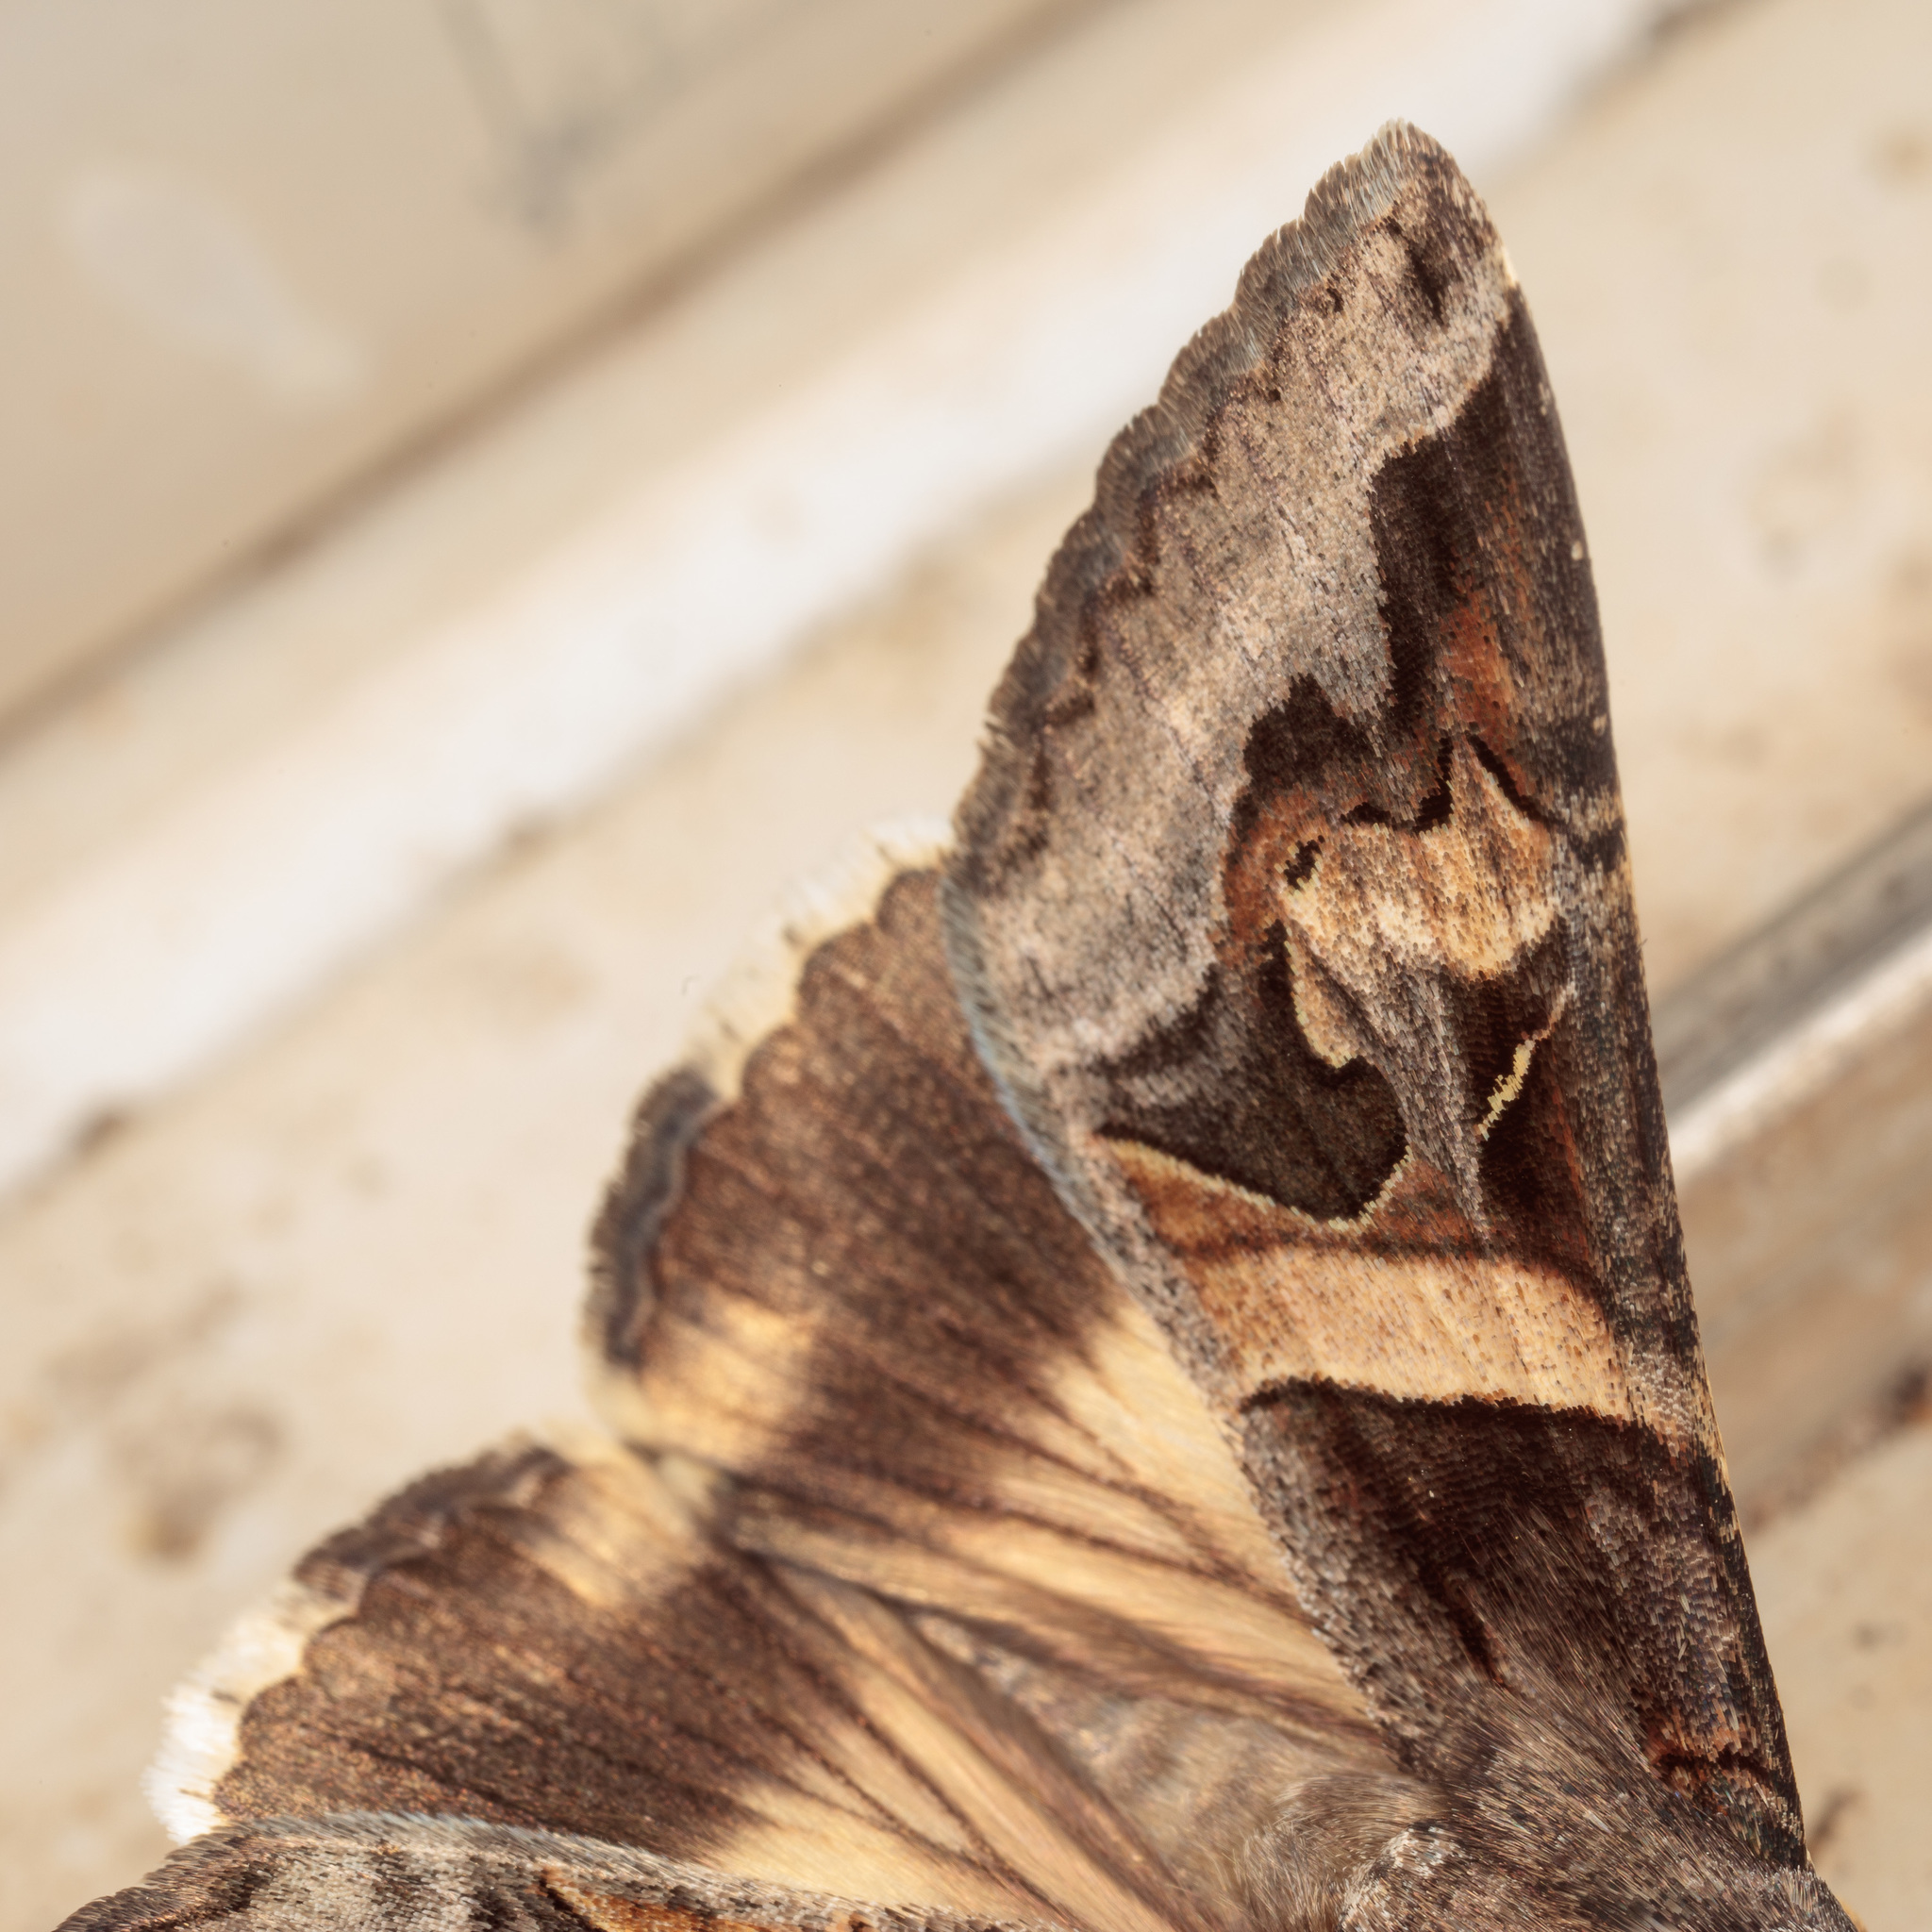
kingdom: Animalia
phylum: Arthropoda
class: Insecta
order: Lepidoptera
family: Erebidae
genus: Melipotis
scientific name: Melipotis indomita
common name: Moth
